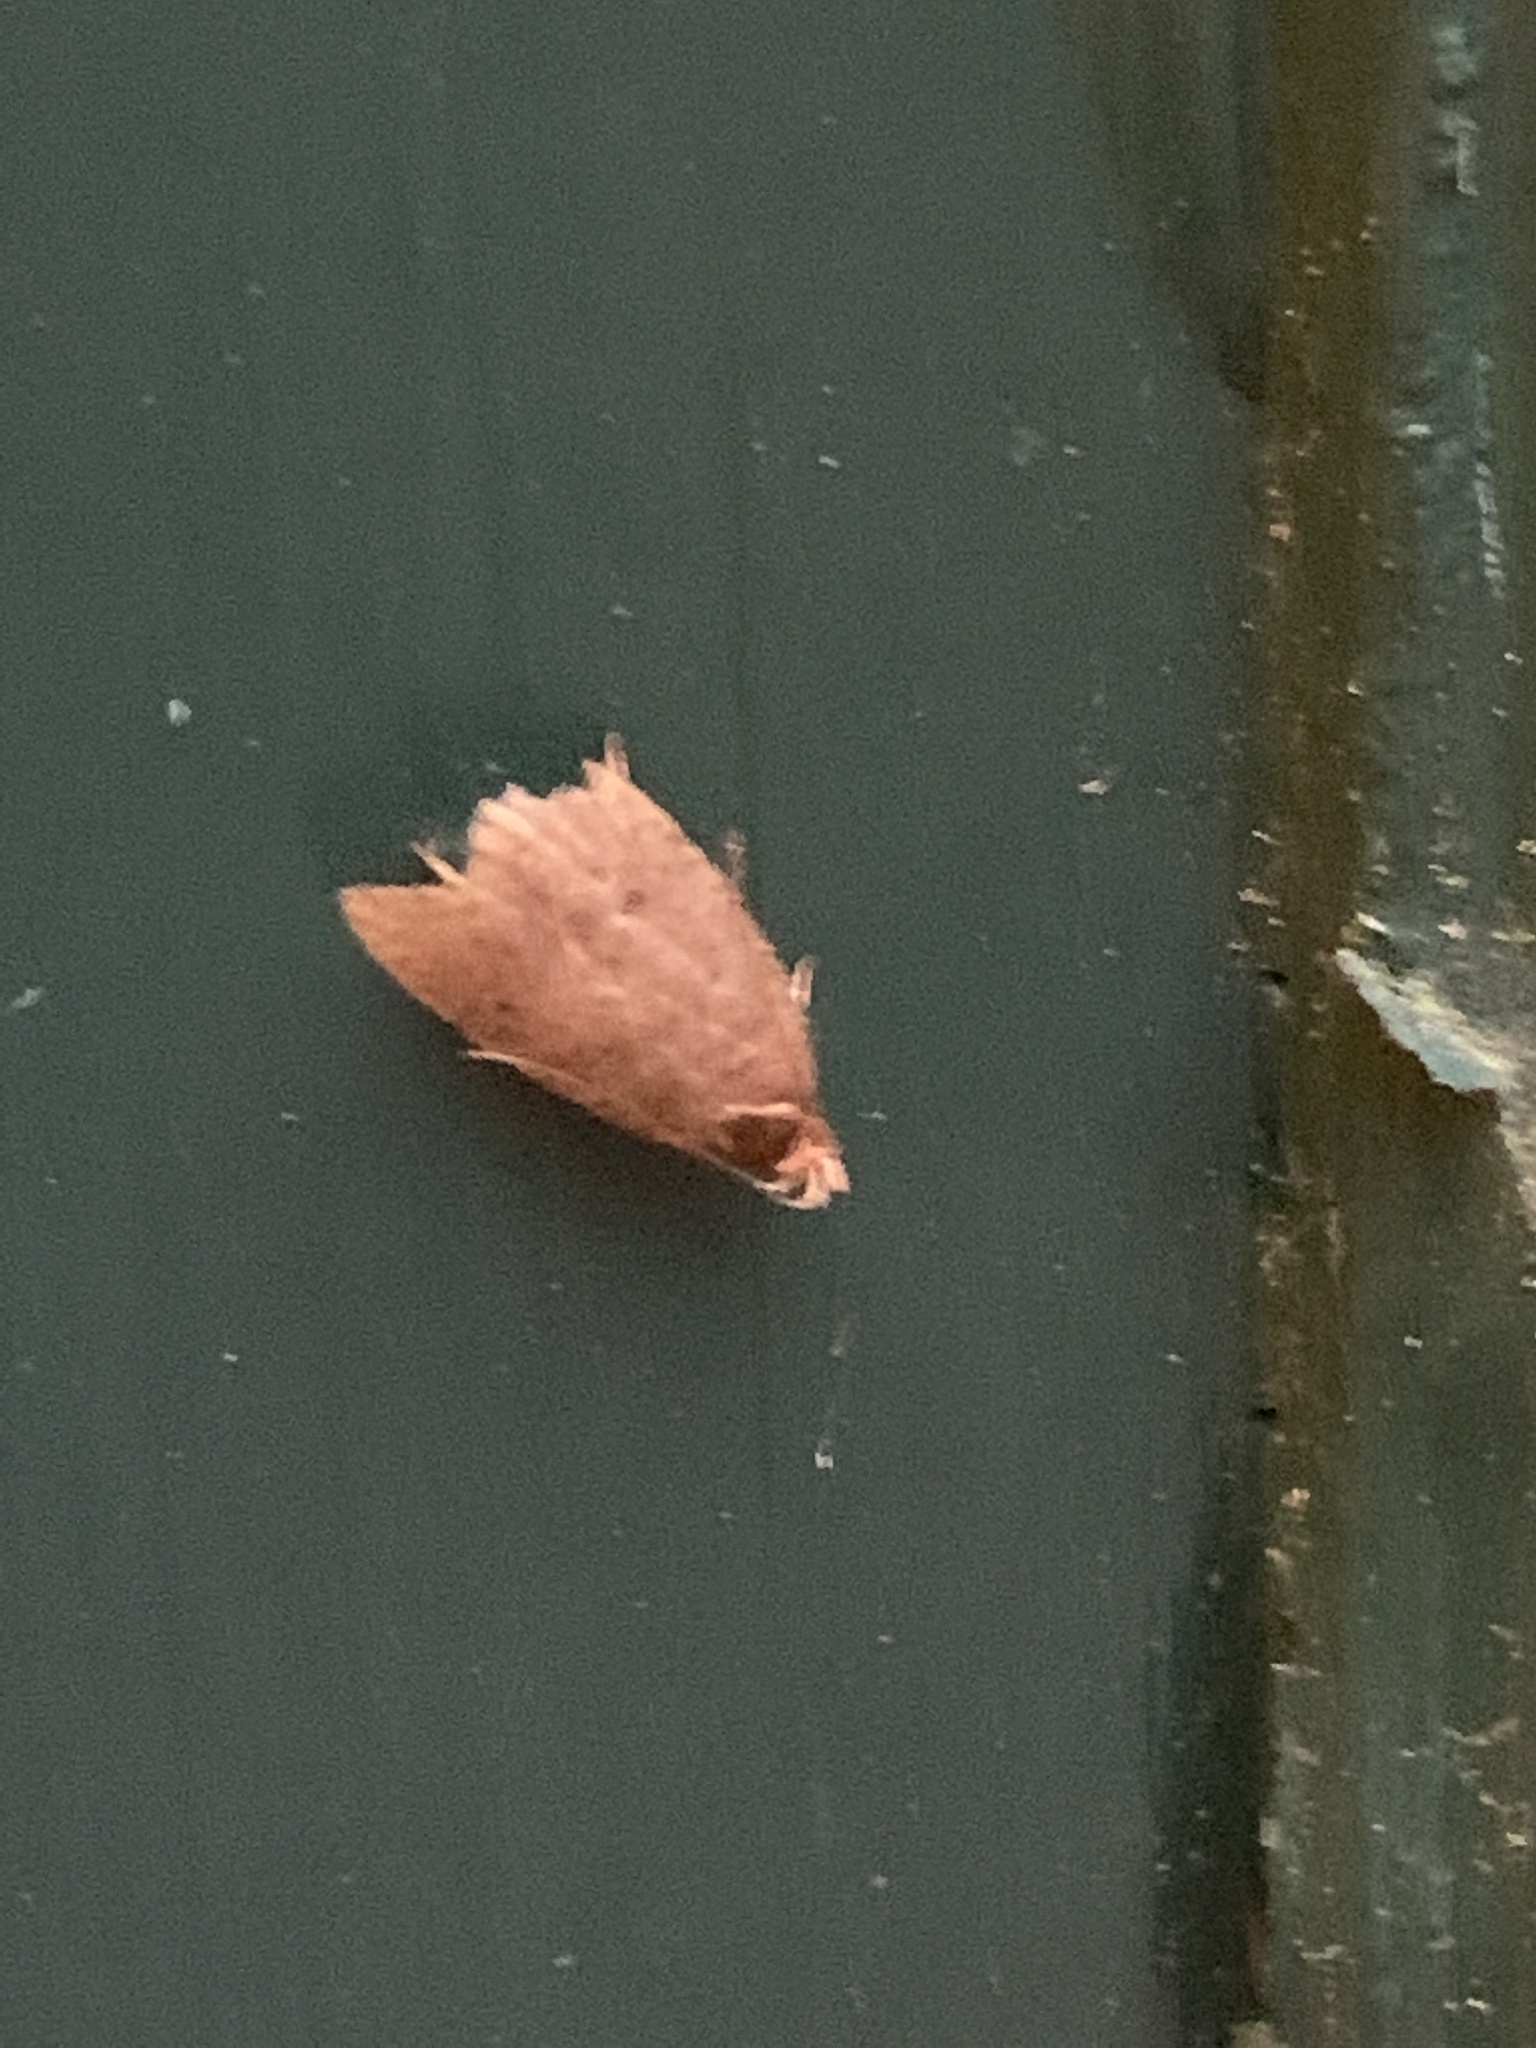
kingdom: Animalia
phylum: Arthropoda
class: Insecta
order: Lepidoptera
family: Depressariidae
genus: Psilocorsis
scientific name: Psilocorsis reflexella
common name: Dotted leaftier moth
